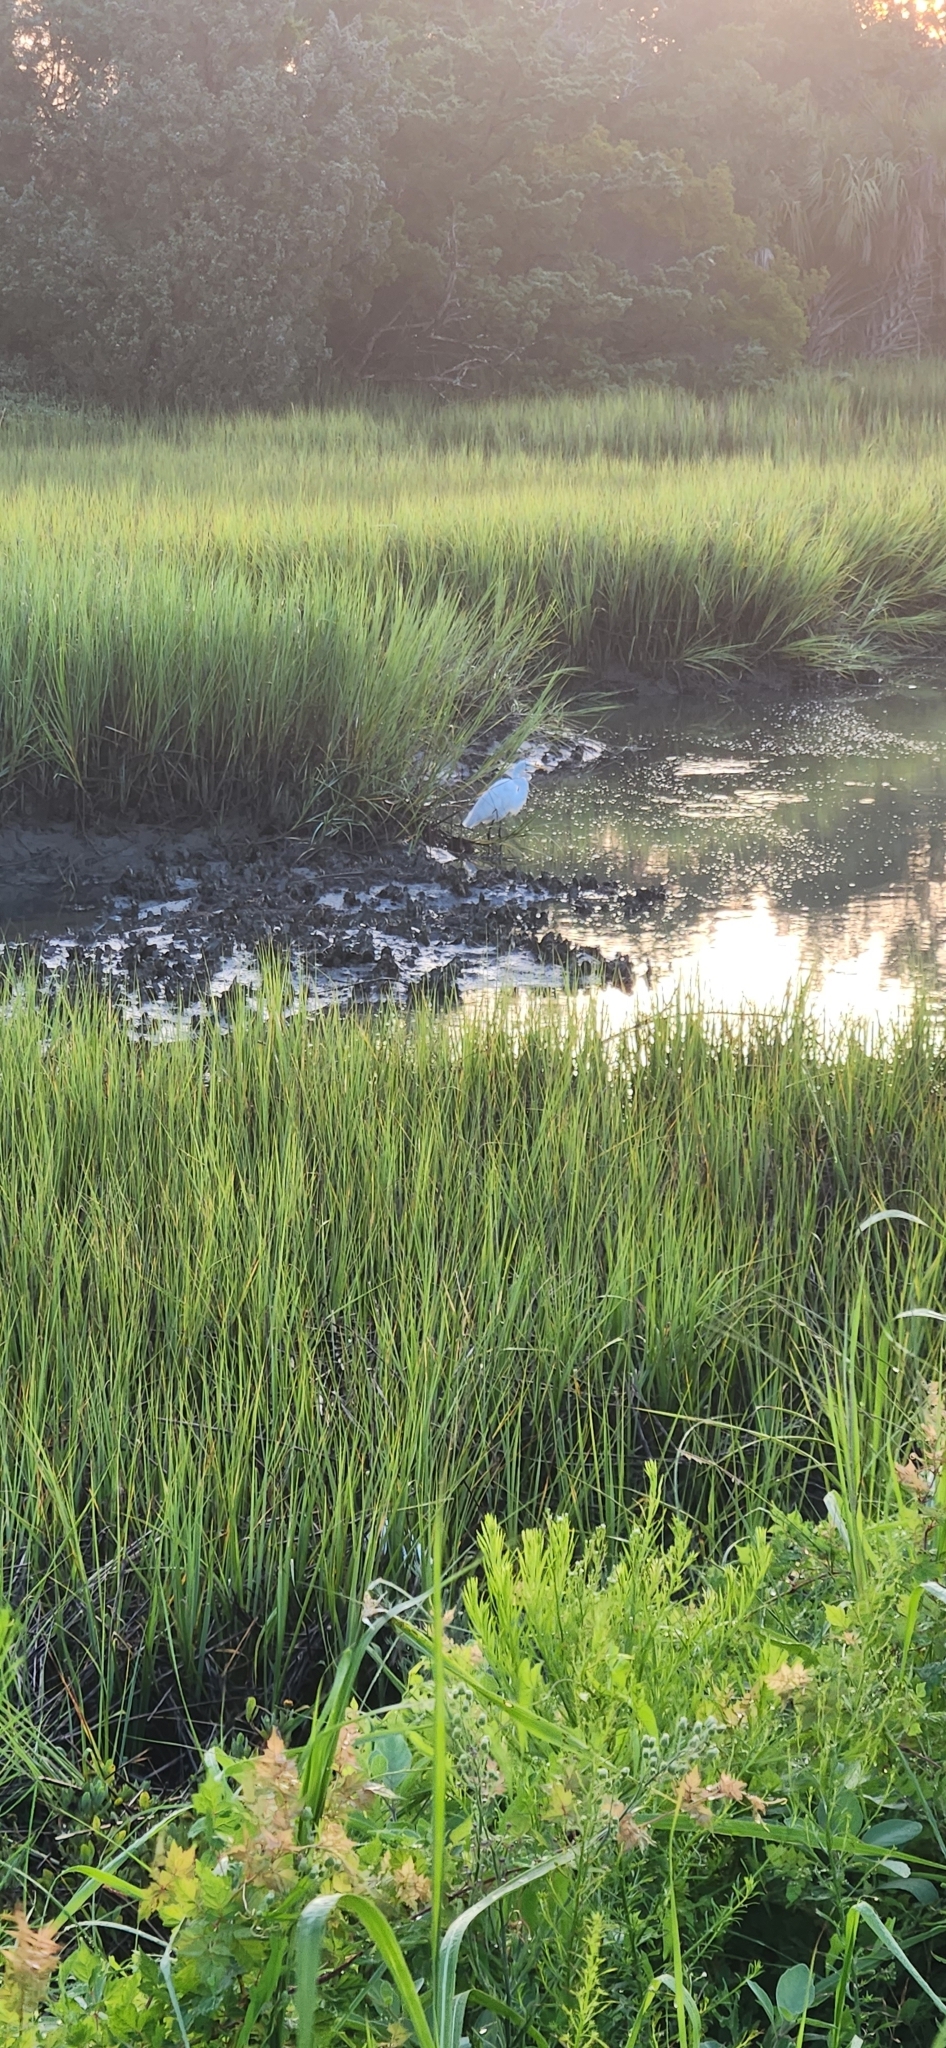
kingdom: Animalia
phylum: Chordata
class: Aves
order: Pelecaniformes
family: Ardeidae
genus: Ardea
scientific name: Ardea alba
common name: Great egret
